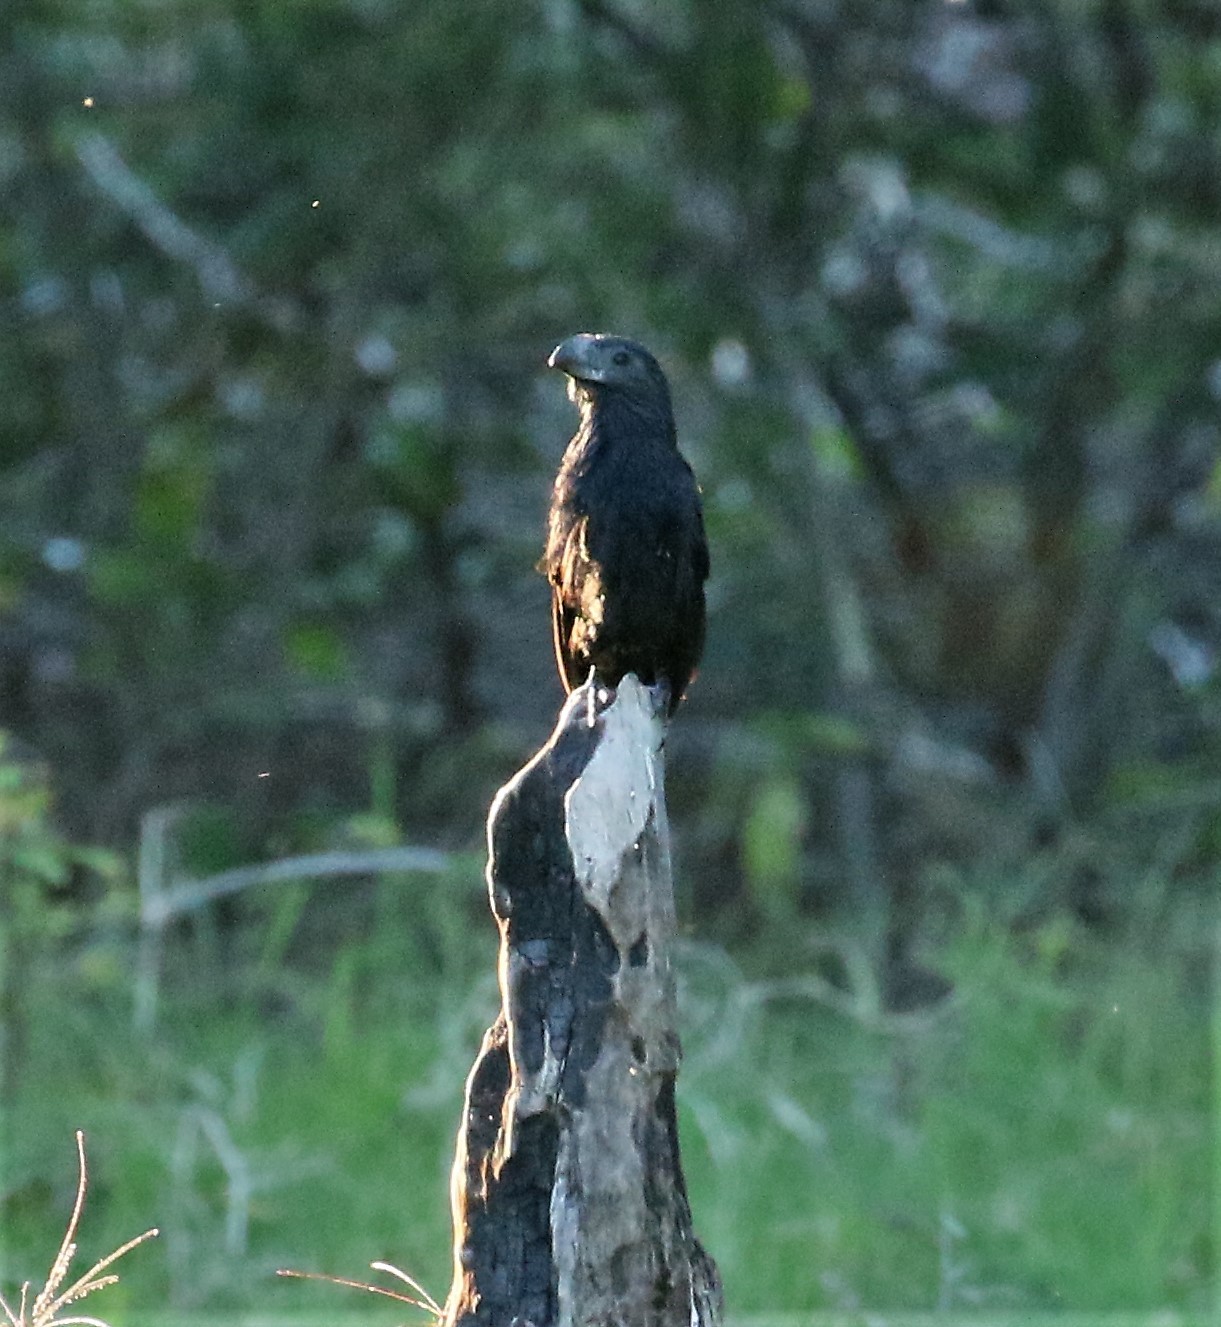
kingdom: Animalia
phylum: Chordata
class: Aves
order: Cuculiformes
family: Cuculidae
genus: Crotophaga
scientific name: Crotophaga sulcirostris
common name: Groove-billed ani
